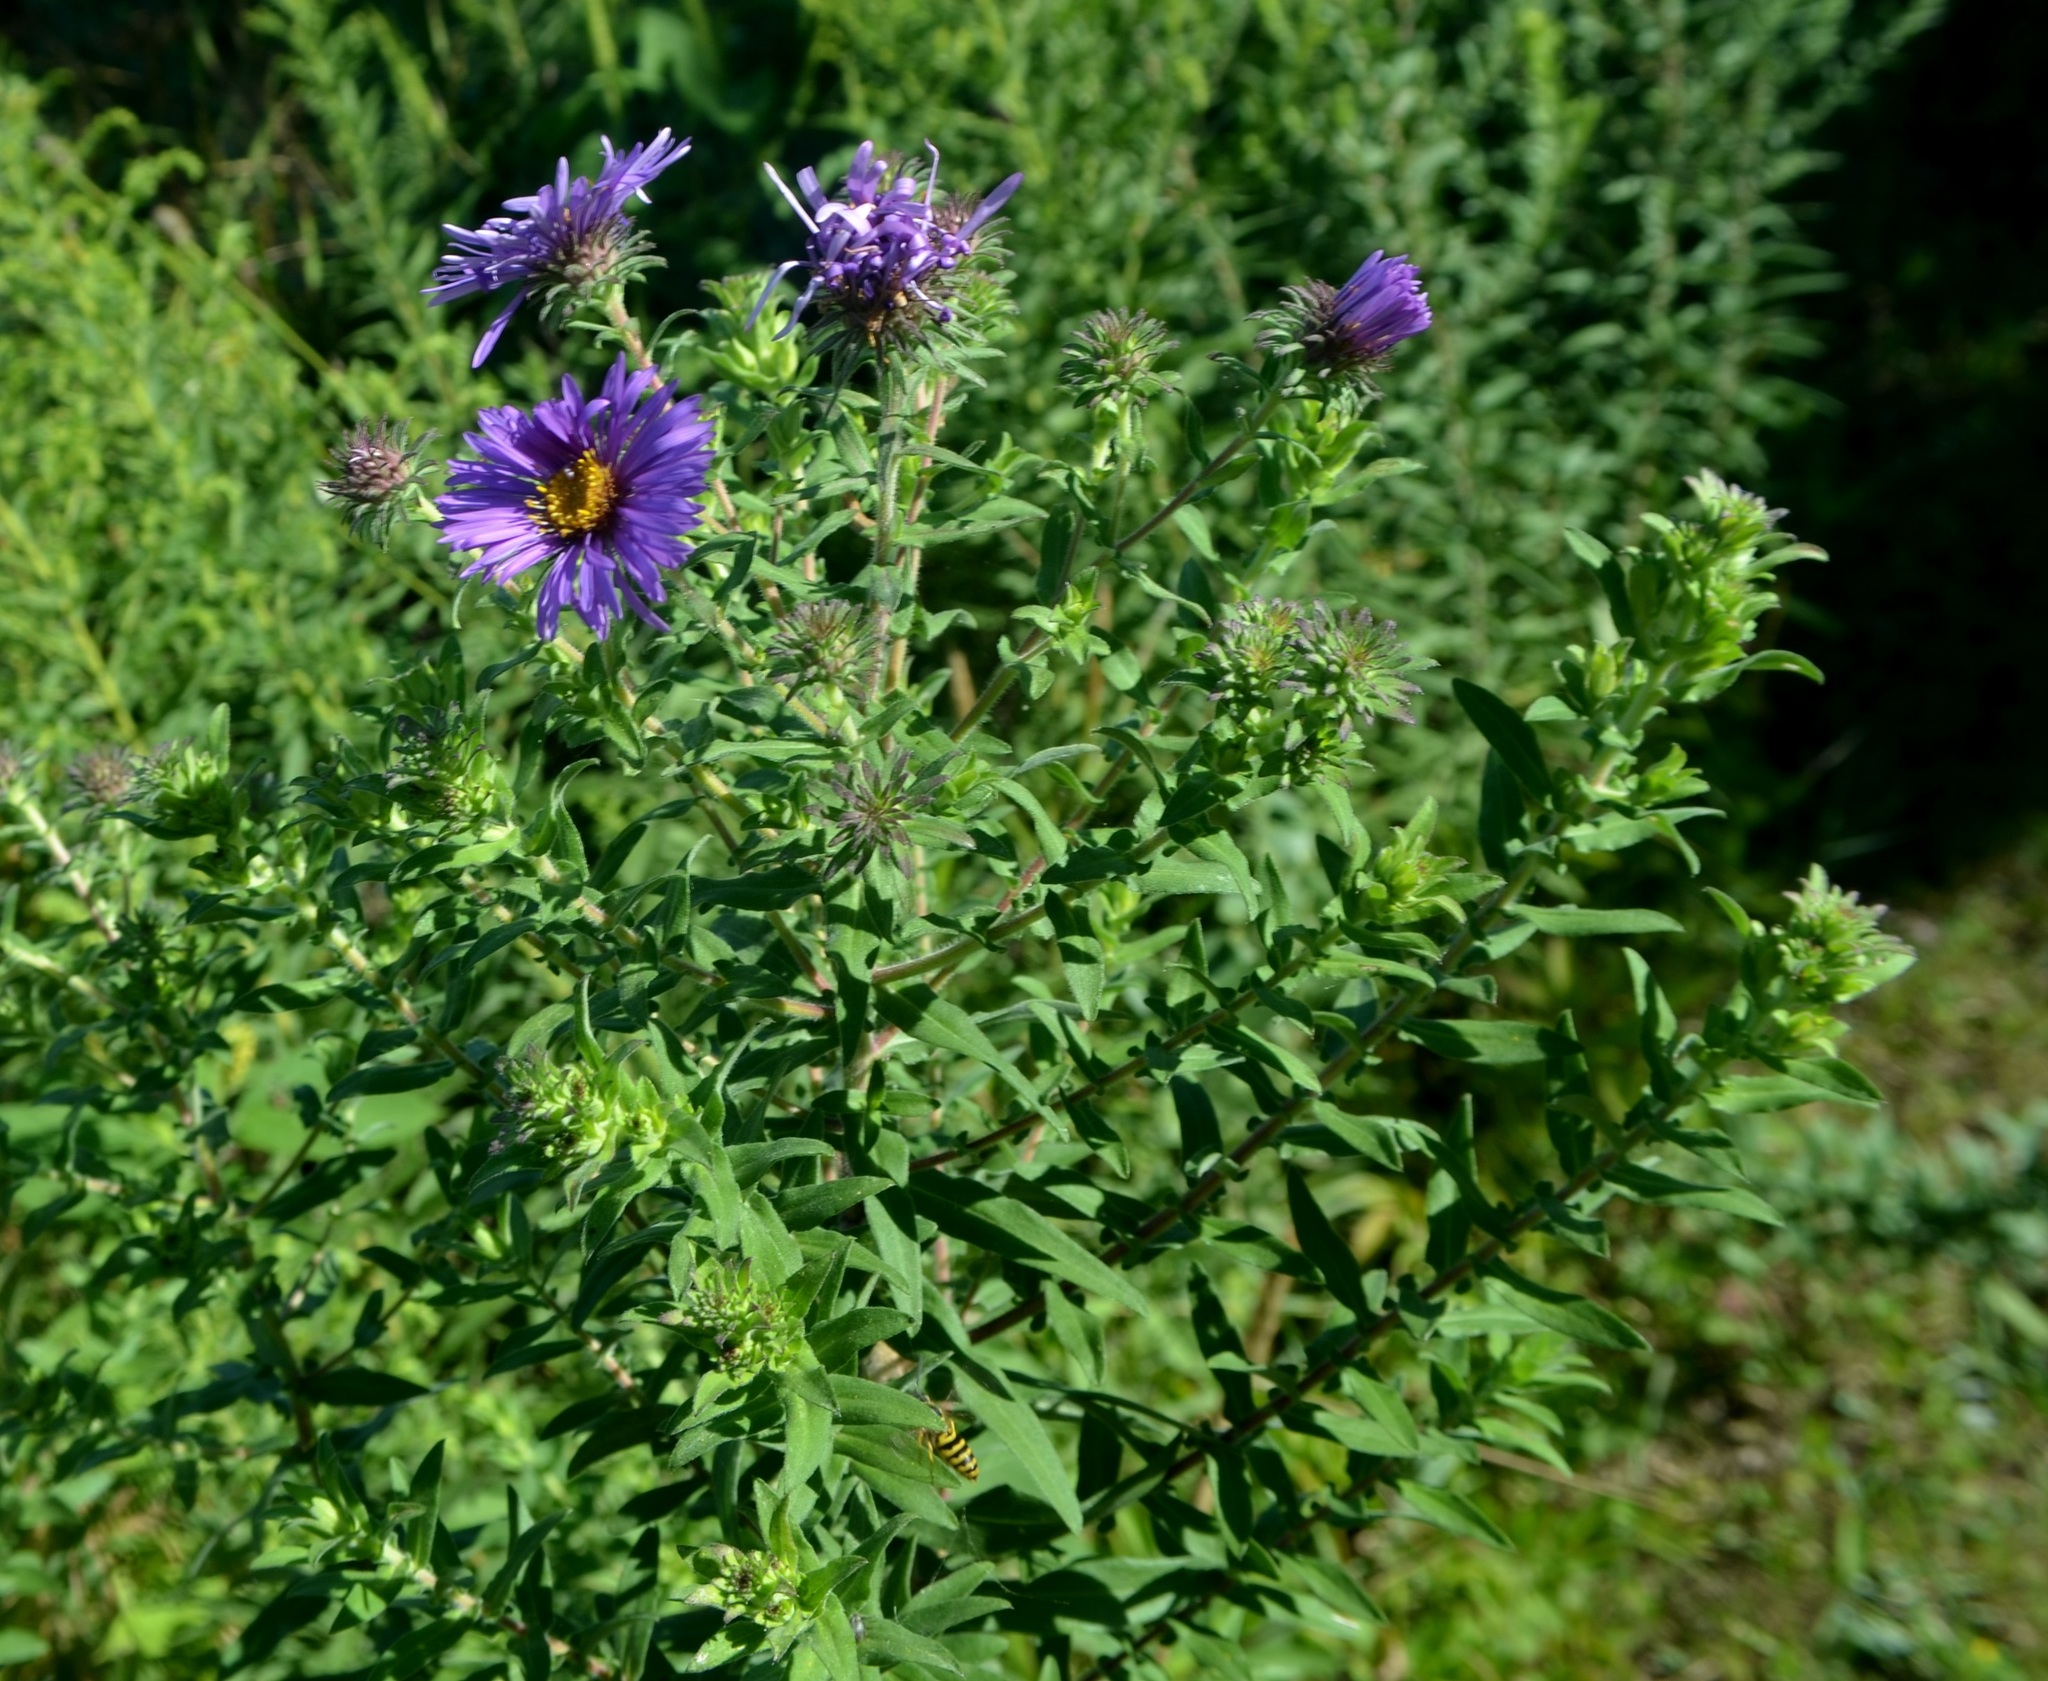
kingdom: Plantae
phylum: Tracheophyta
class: Magnoliopsida
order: Asterales
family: Asteraceae
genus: Symphyotrichum
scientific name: Symphyotrichum novae-angliae
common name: Michaelmas daisy
